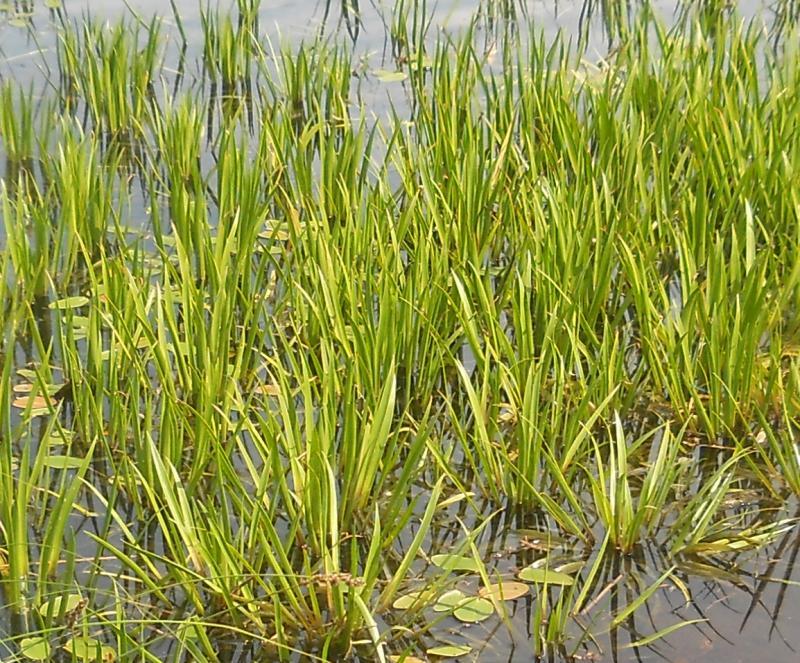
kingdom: Plantae
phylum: Tracheophyta
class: Liliopsida
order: Alismatales
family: Hydrocharitaceae
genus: Stratiotes
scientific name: Stratiotes aloides
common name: Water-soldier
